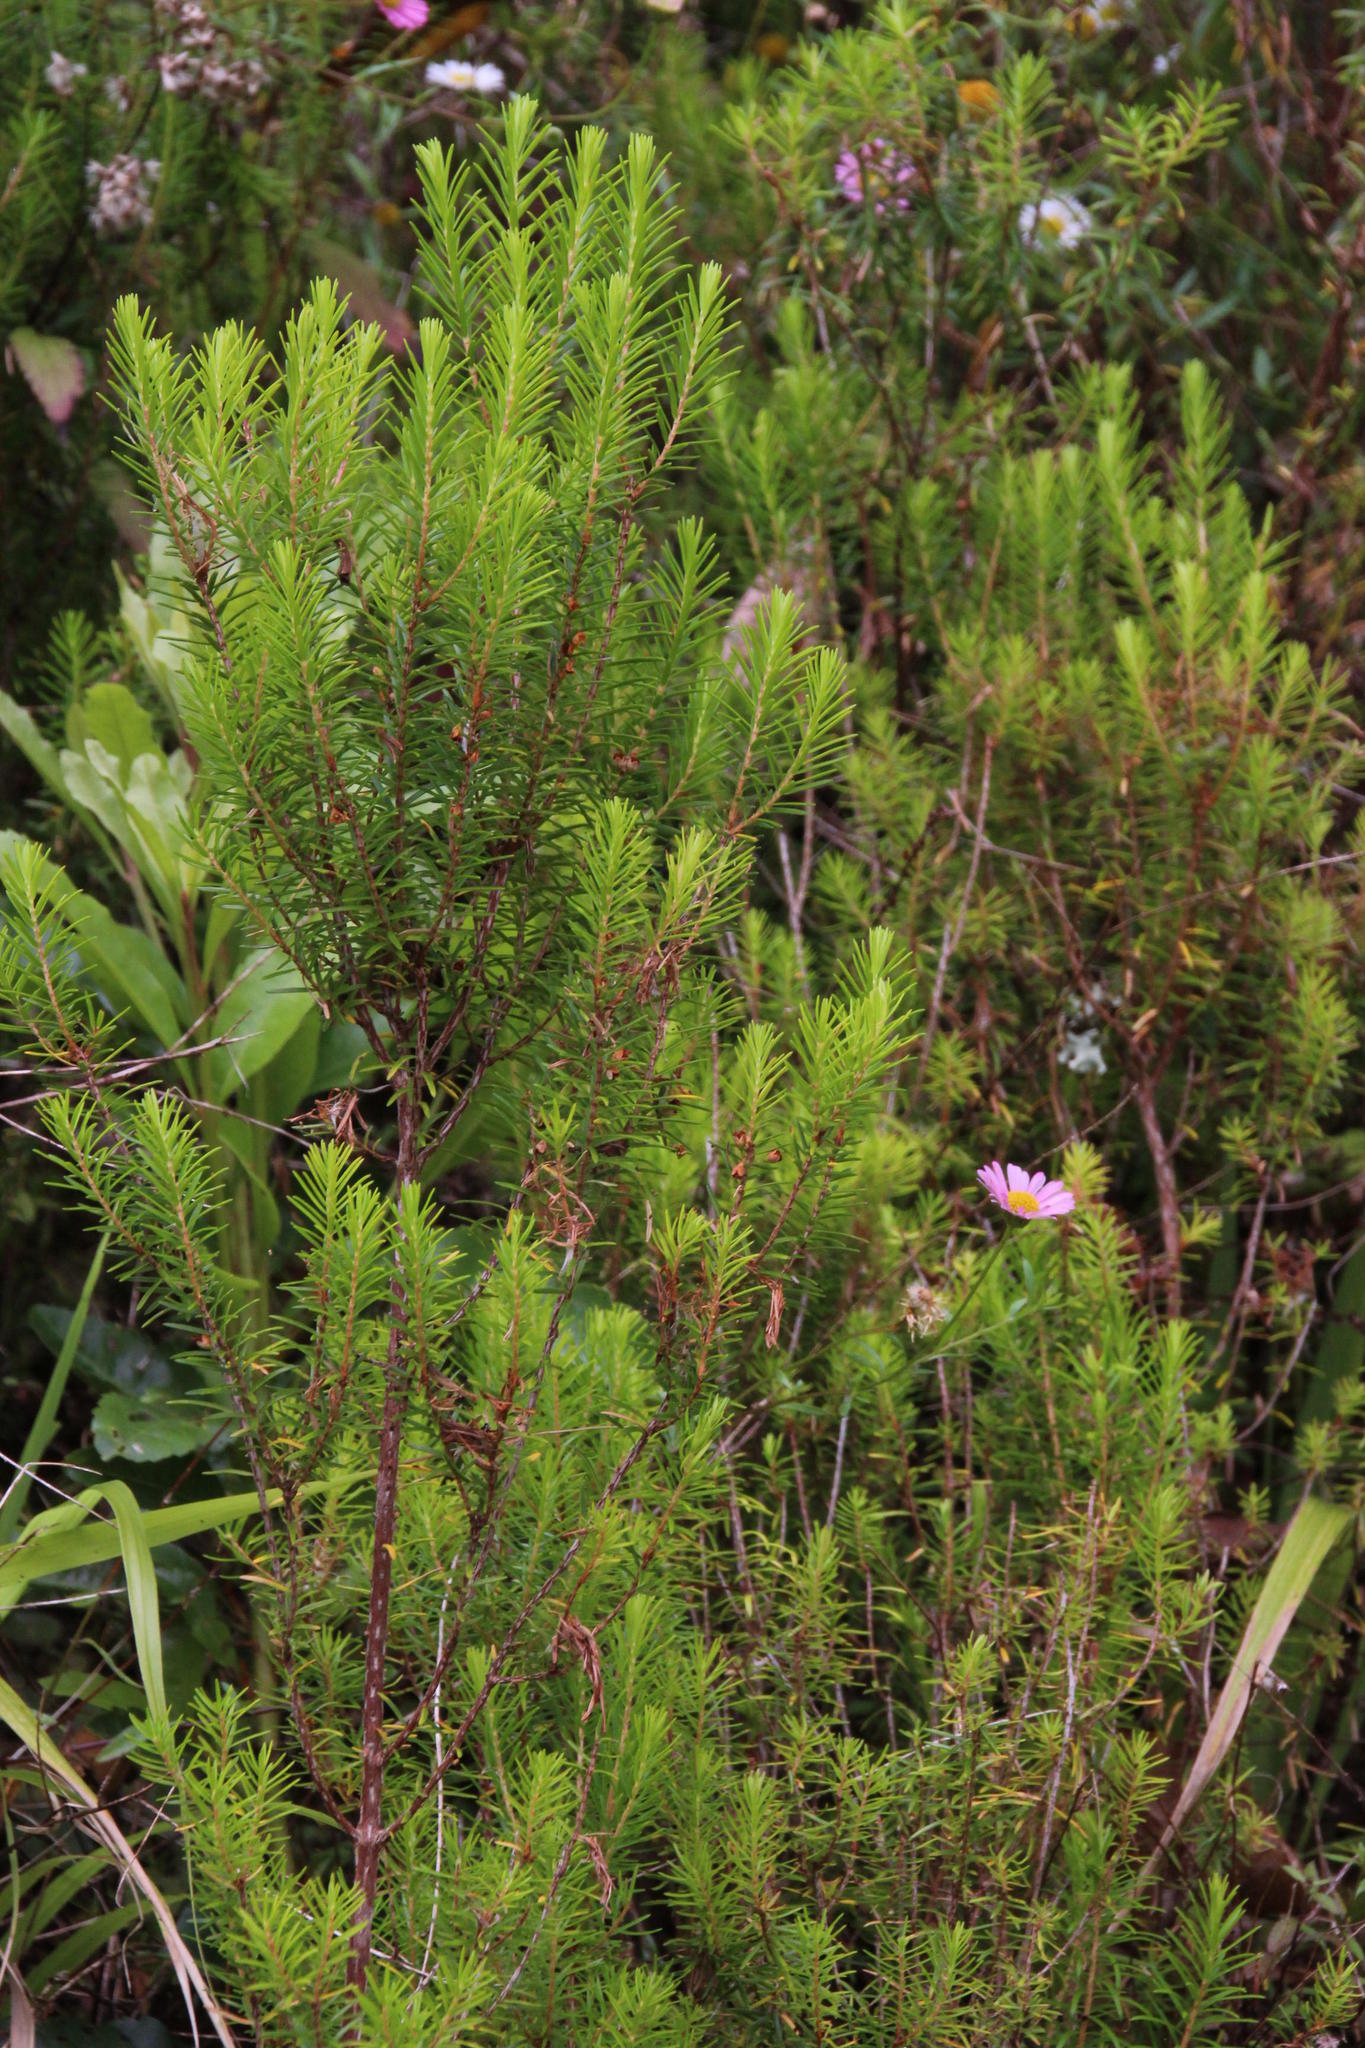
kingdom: Plantae
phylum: Tracheophyta
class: Magnoliopsida
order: Ericales
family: Ericaceae
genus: Erica
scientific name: Erica platycodon
